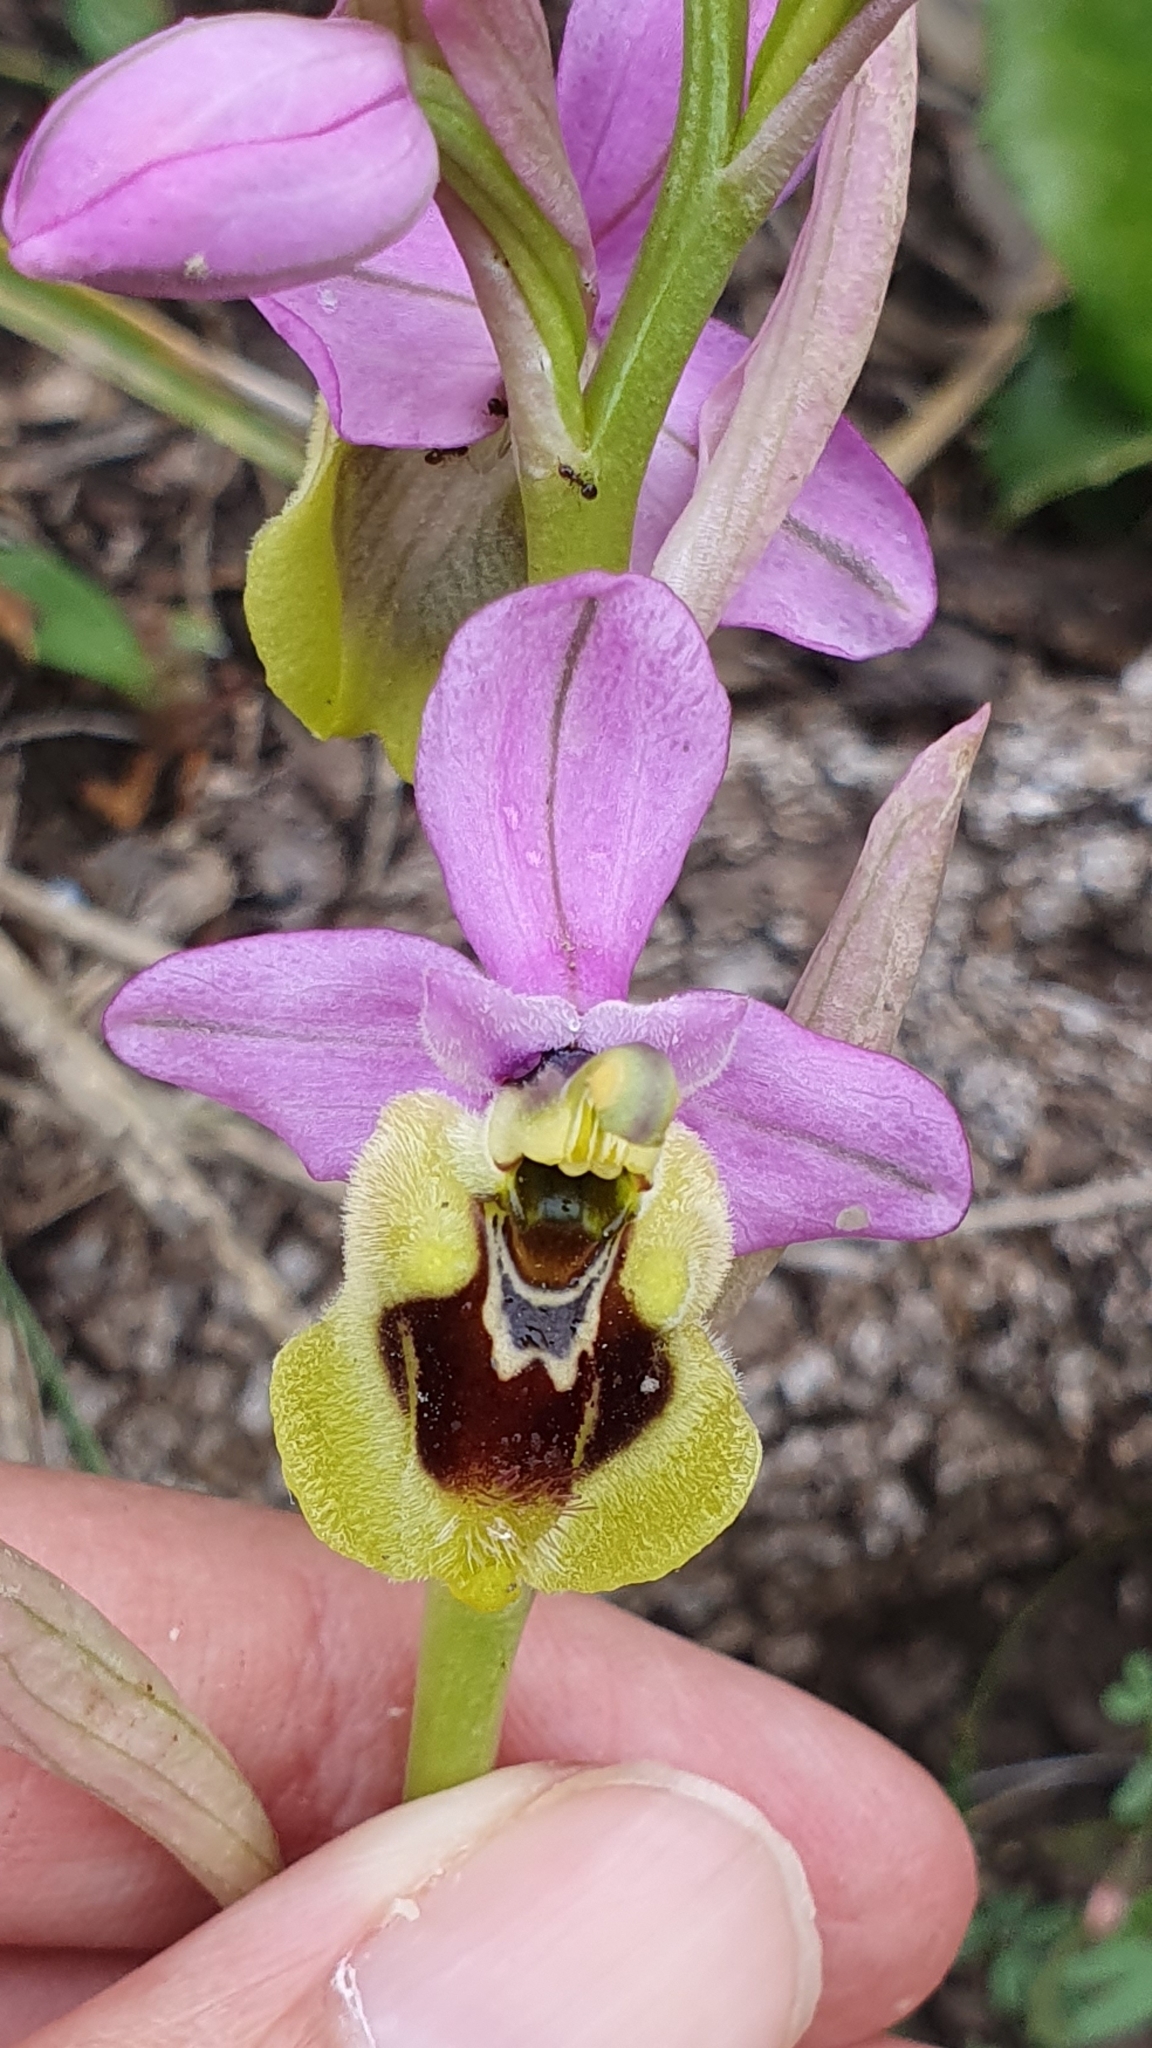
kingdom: Plantae
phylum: Tracheophyta
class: Liliopsida
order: Asparagales
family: Orchidaceae
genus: Ophrys
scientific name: Ophrys tenthredinifera
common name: Sawfly orchid
